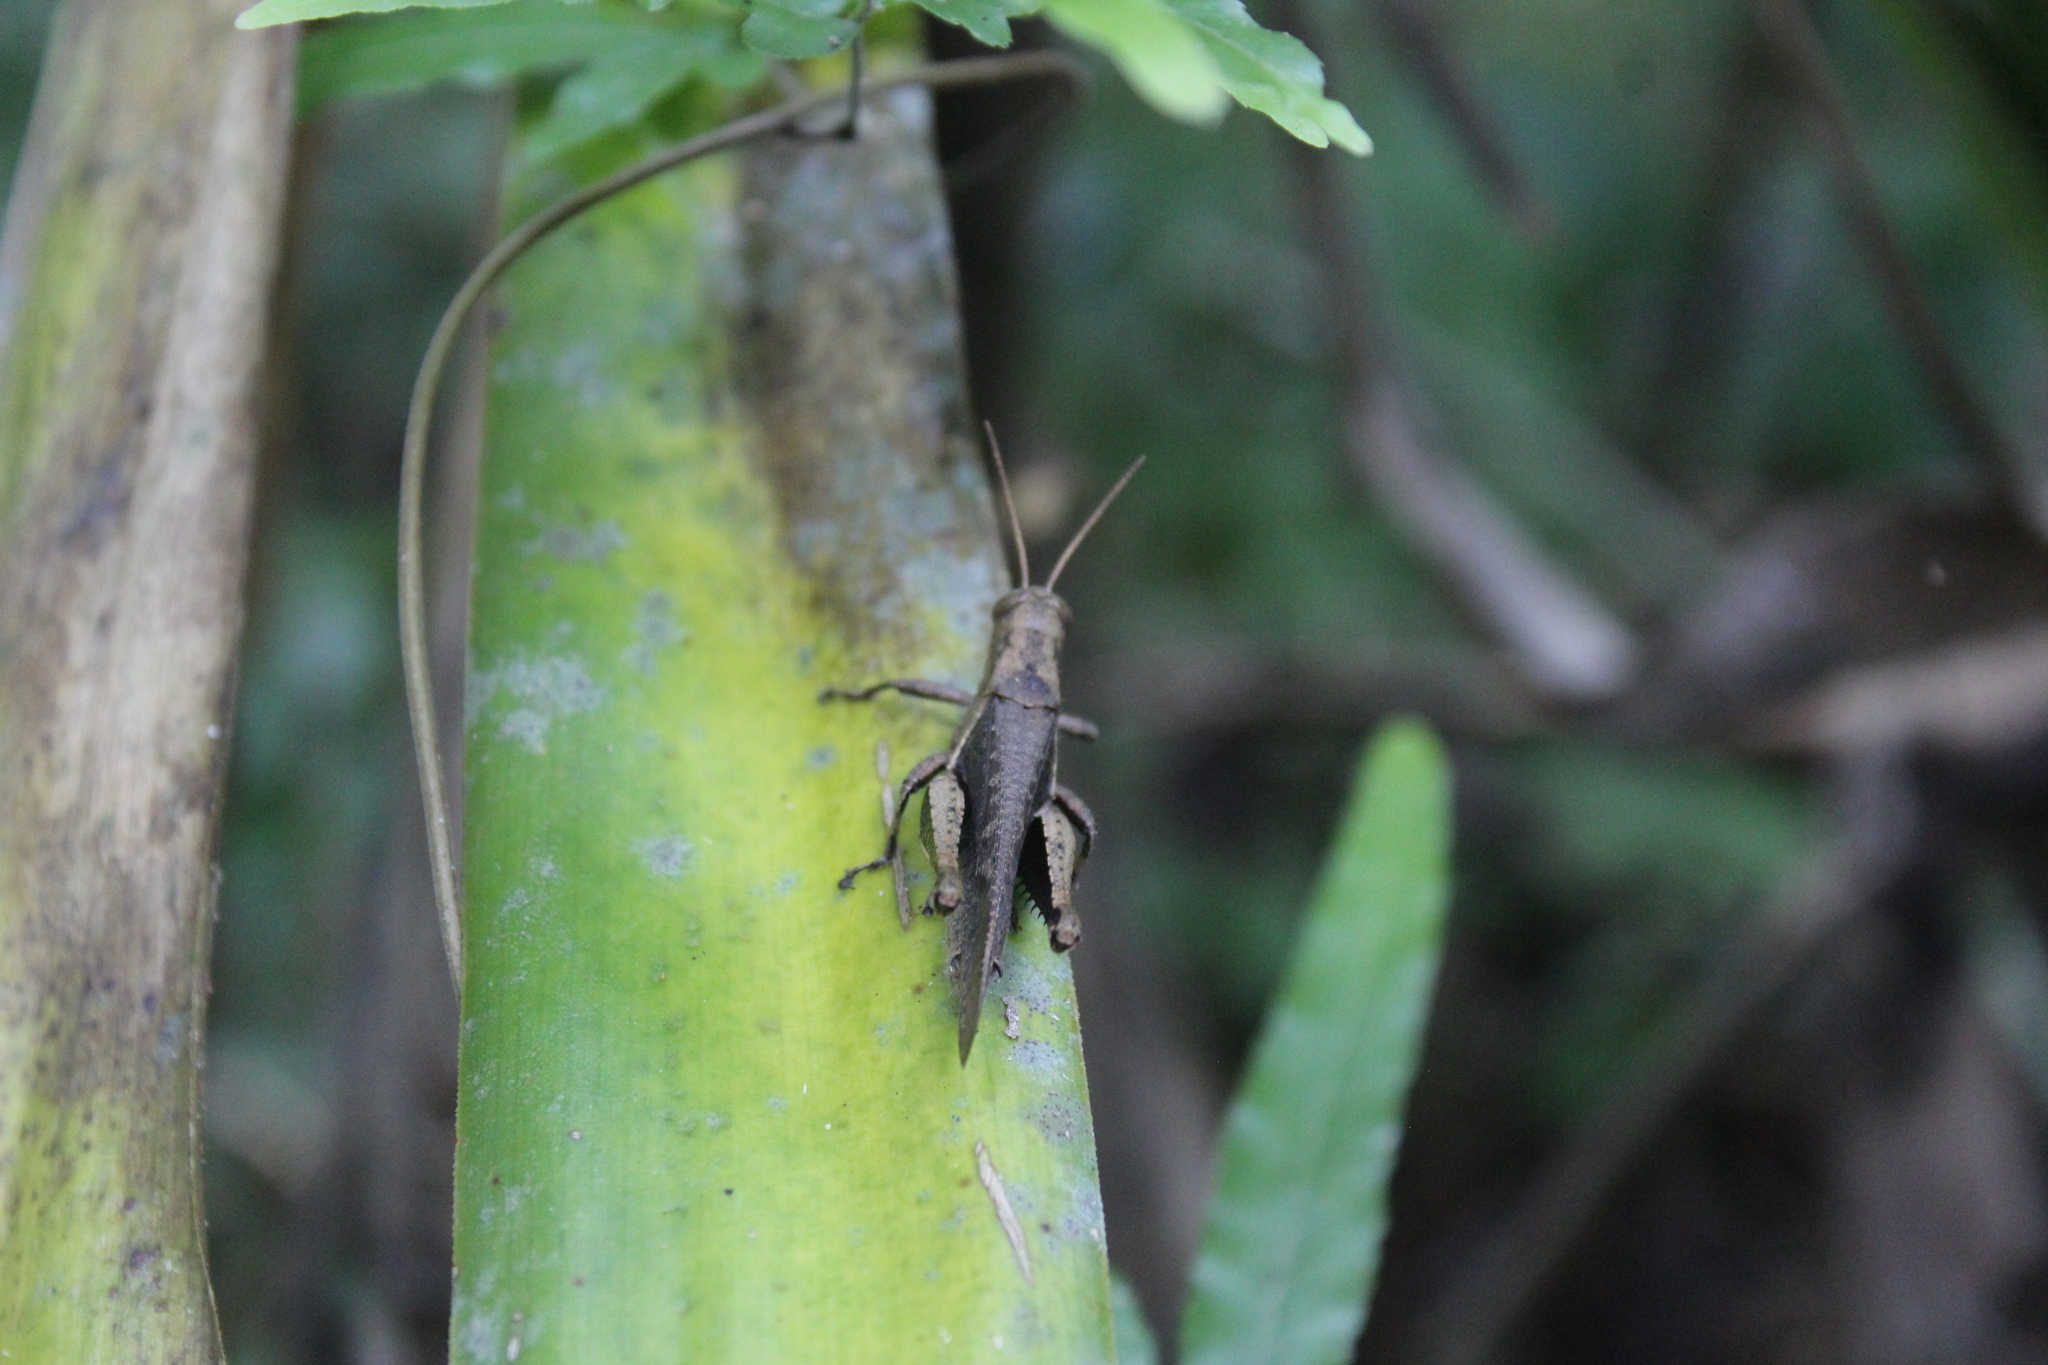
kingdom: Animalia
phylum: Arthropoda
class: Insecta
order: Orthoptera
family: Acrididae
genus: Abracris
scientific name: Abracris flavolineata
